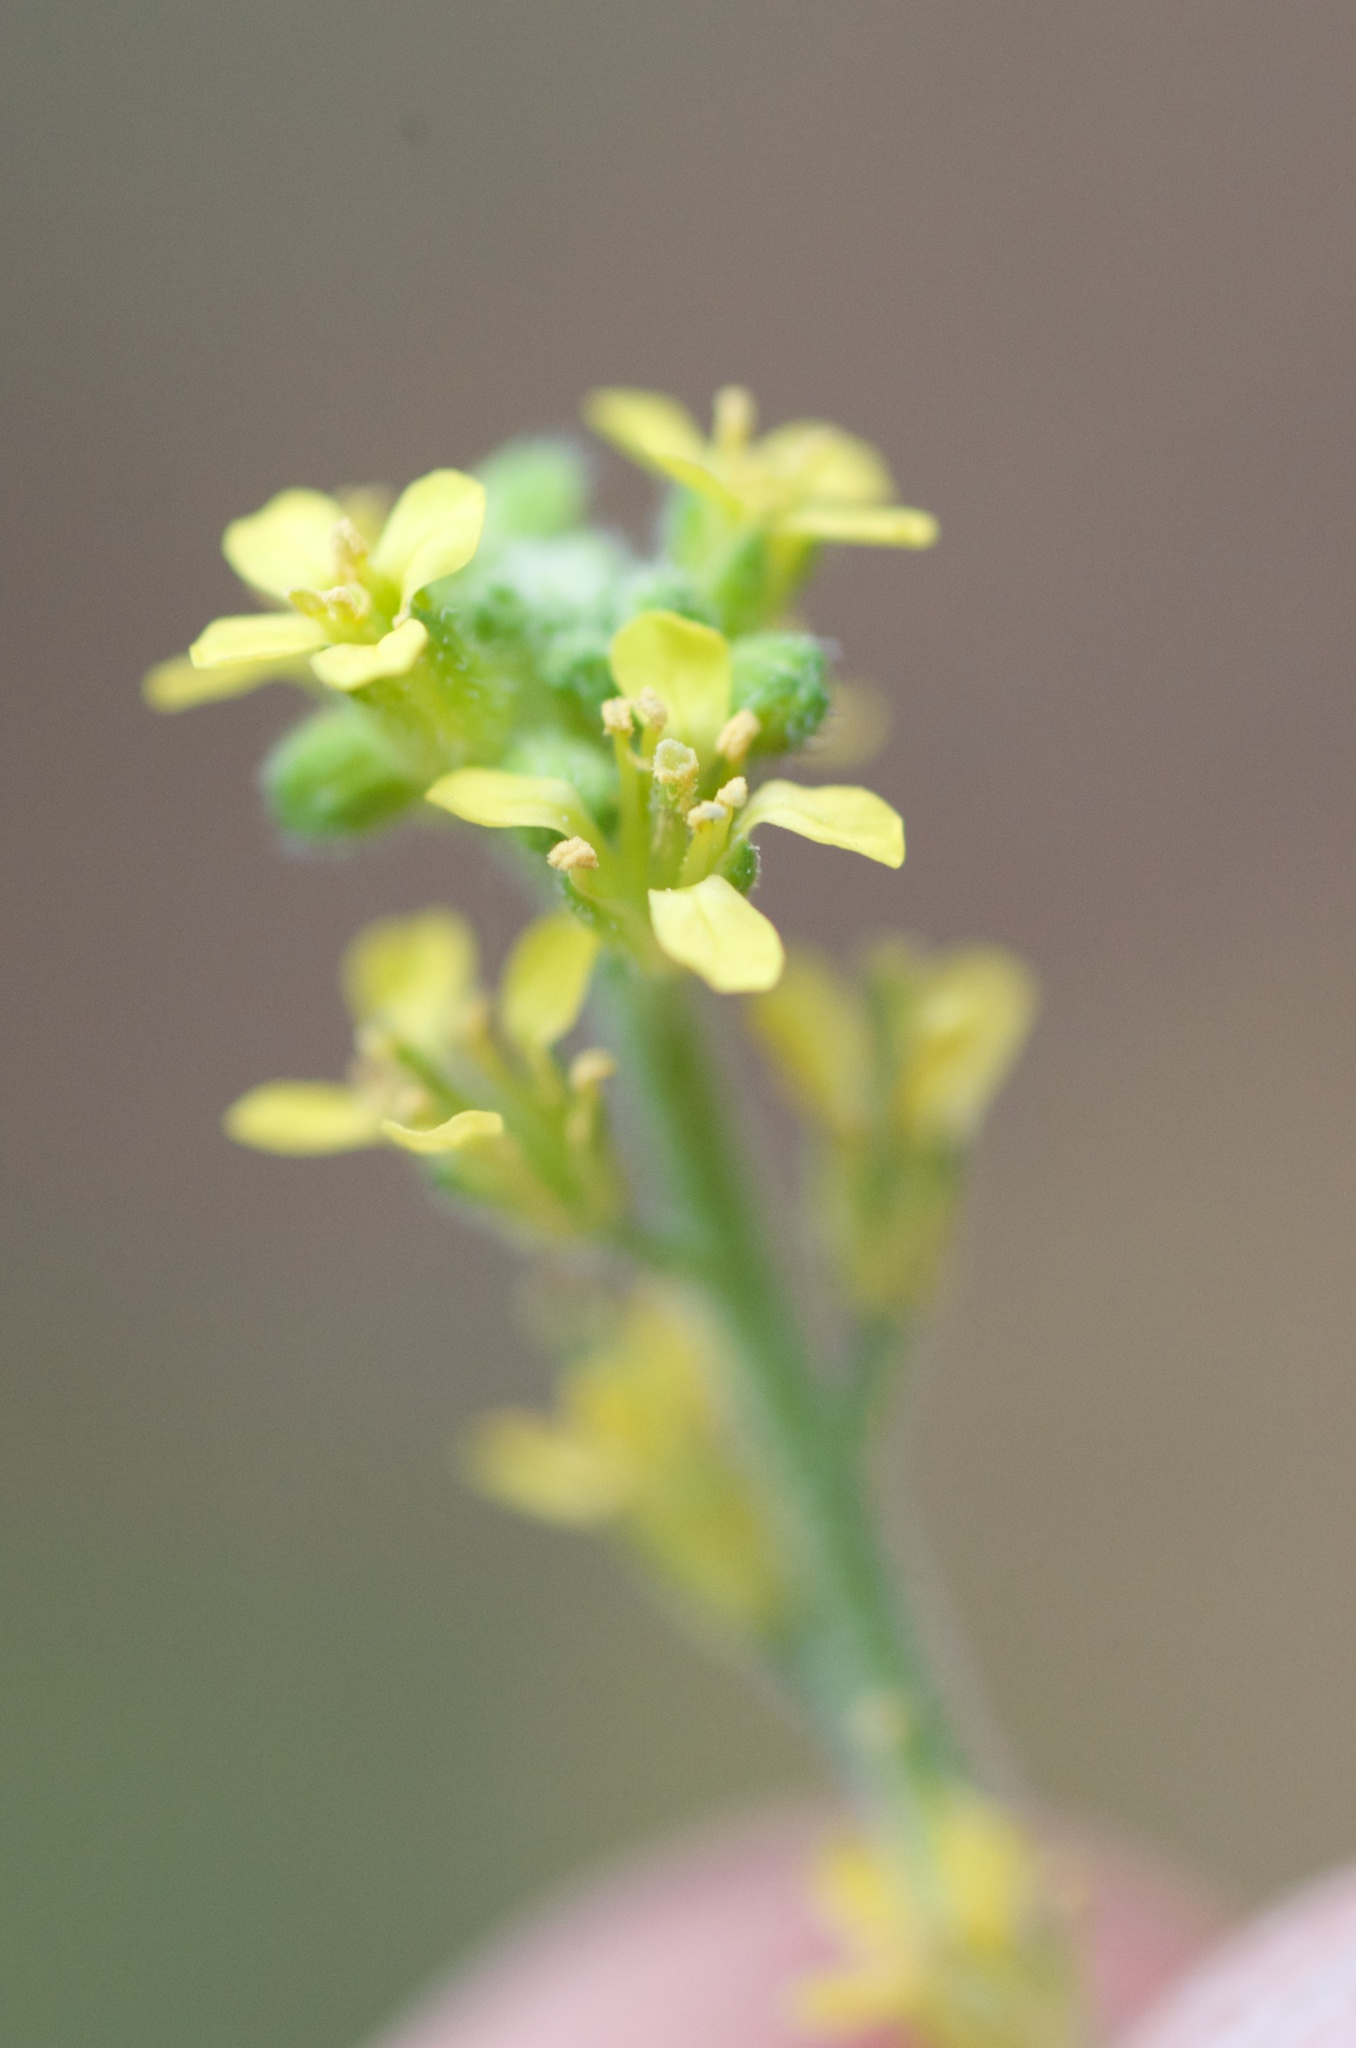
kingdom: Plantae
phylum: Tracheophyta
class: Magnoliopsida
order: Brassicales
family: Brassicaceae
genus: Sisymbrium
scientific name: Sisymbrium officinale
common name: Hedge mustard
